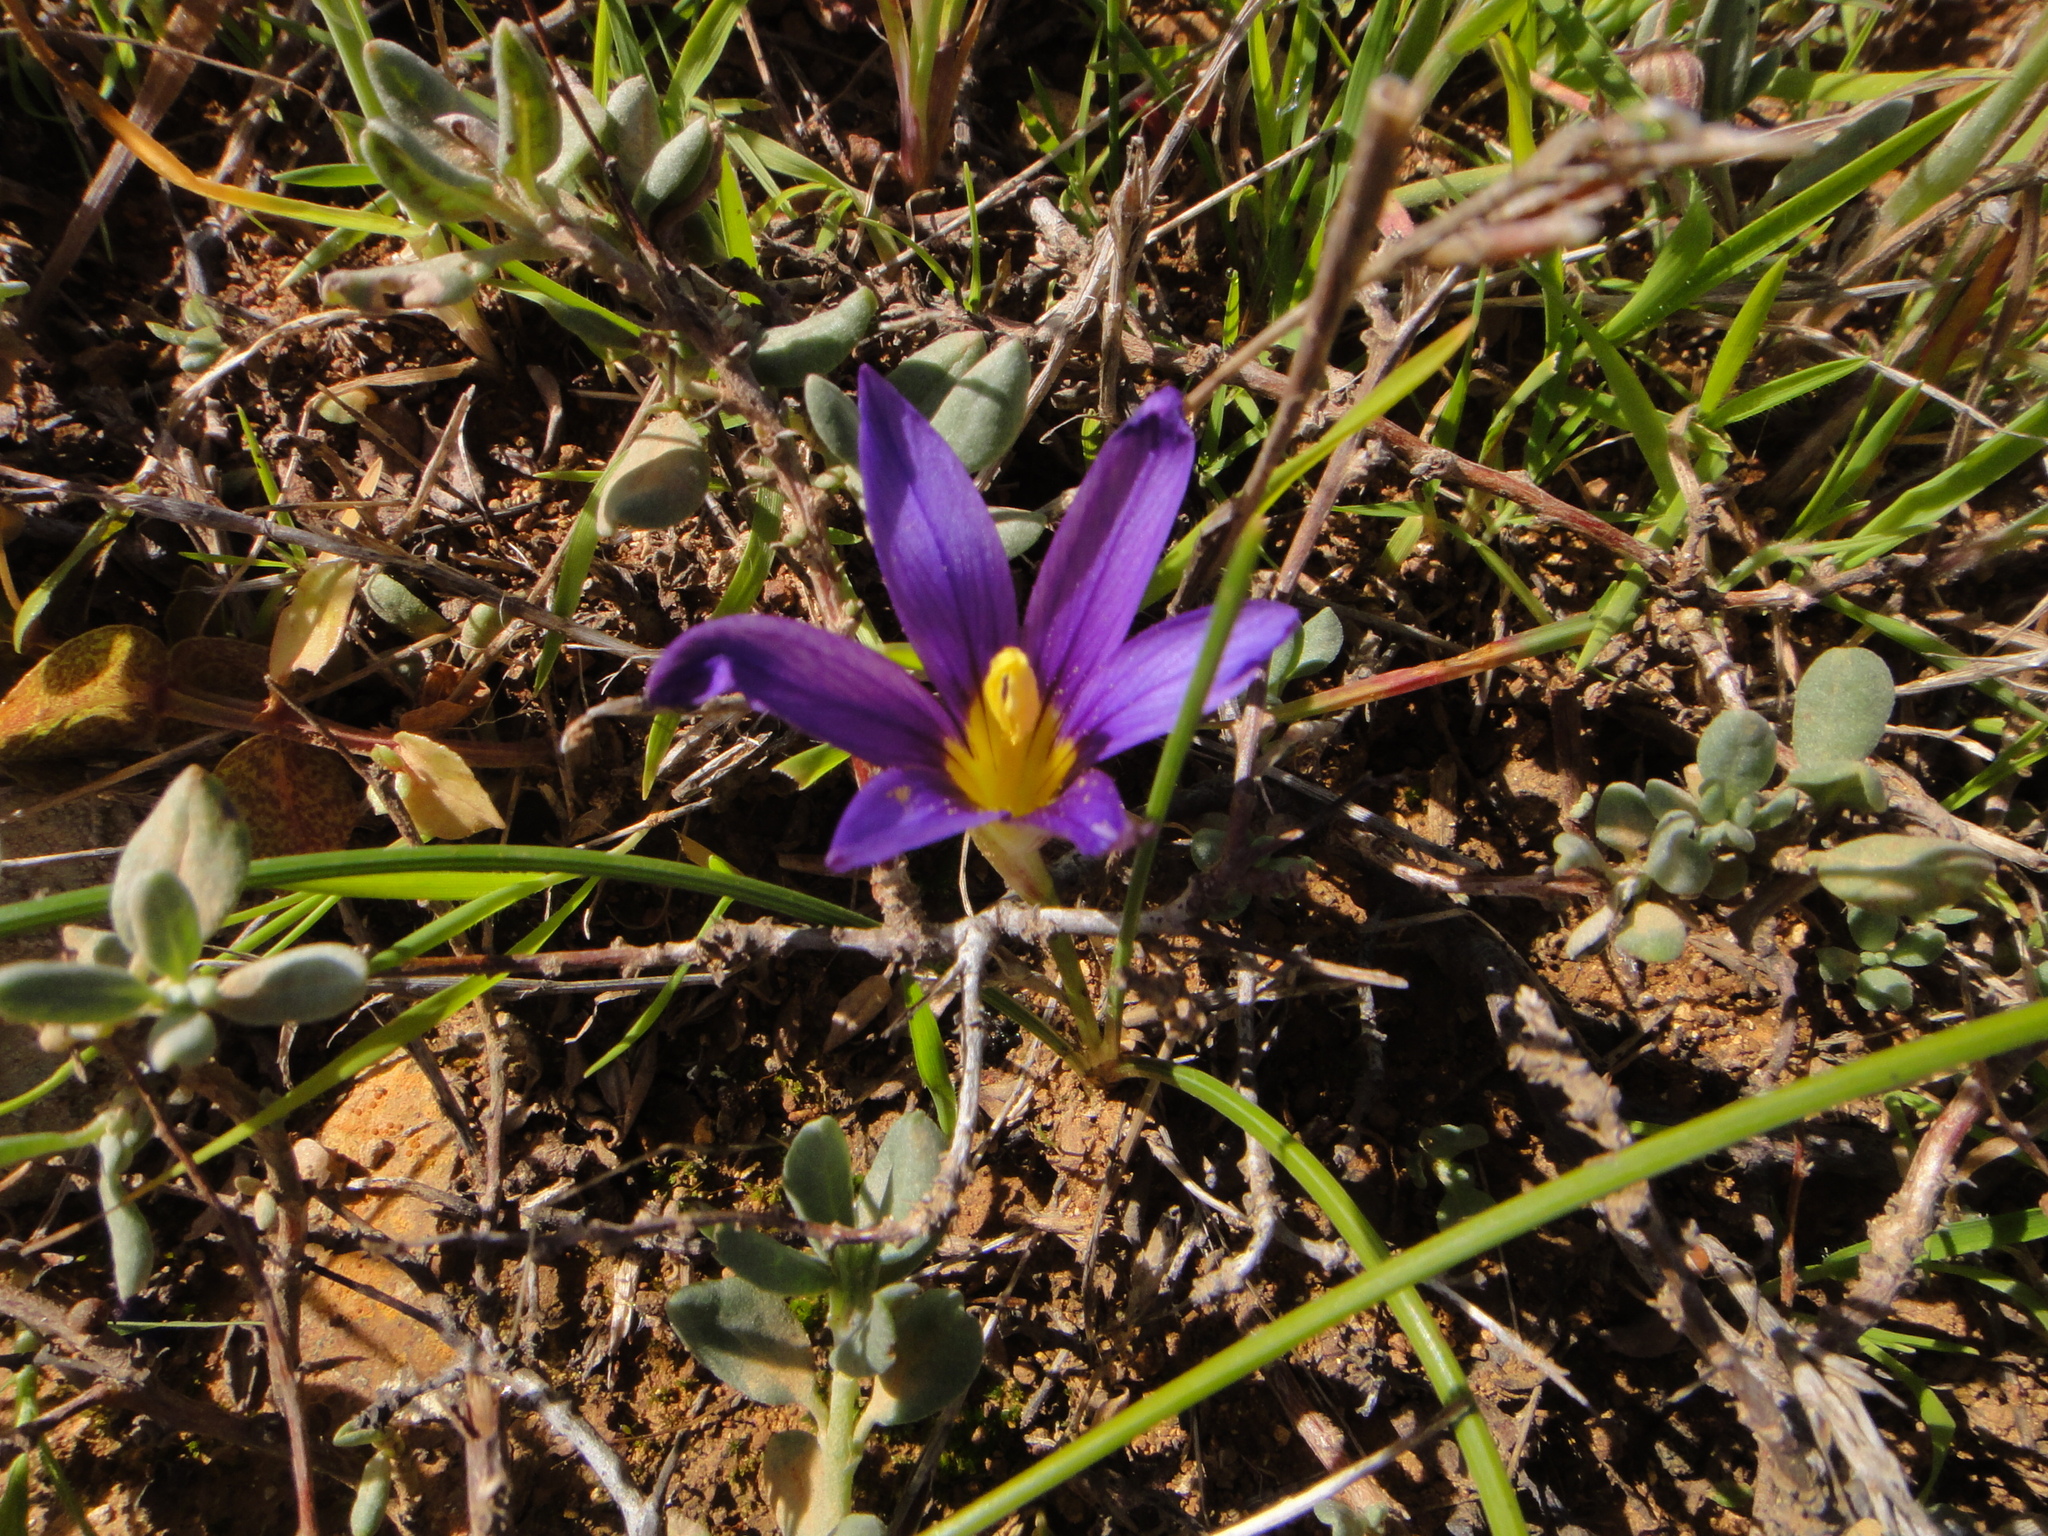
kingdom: Plantae
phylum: Tracheophyta
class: Liliopsida
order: Asparagales
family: Iridaceae
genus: Romulea
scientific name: Romulea columnae
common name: Sand-crocus
